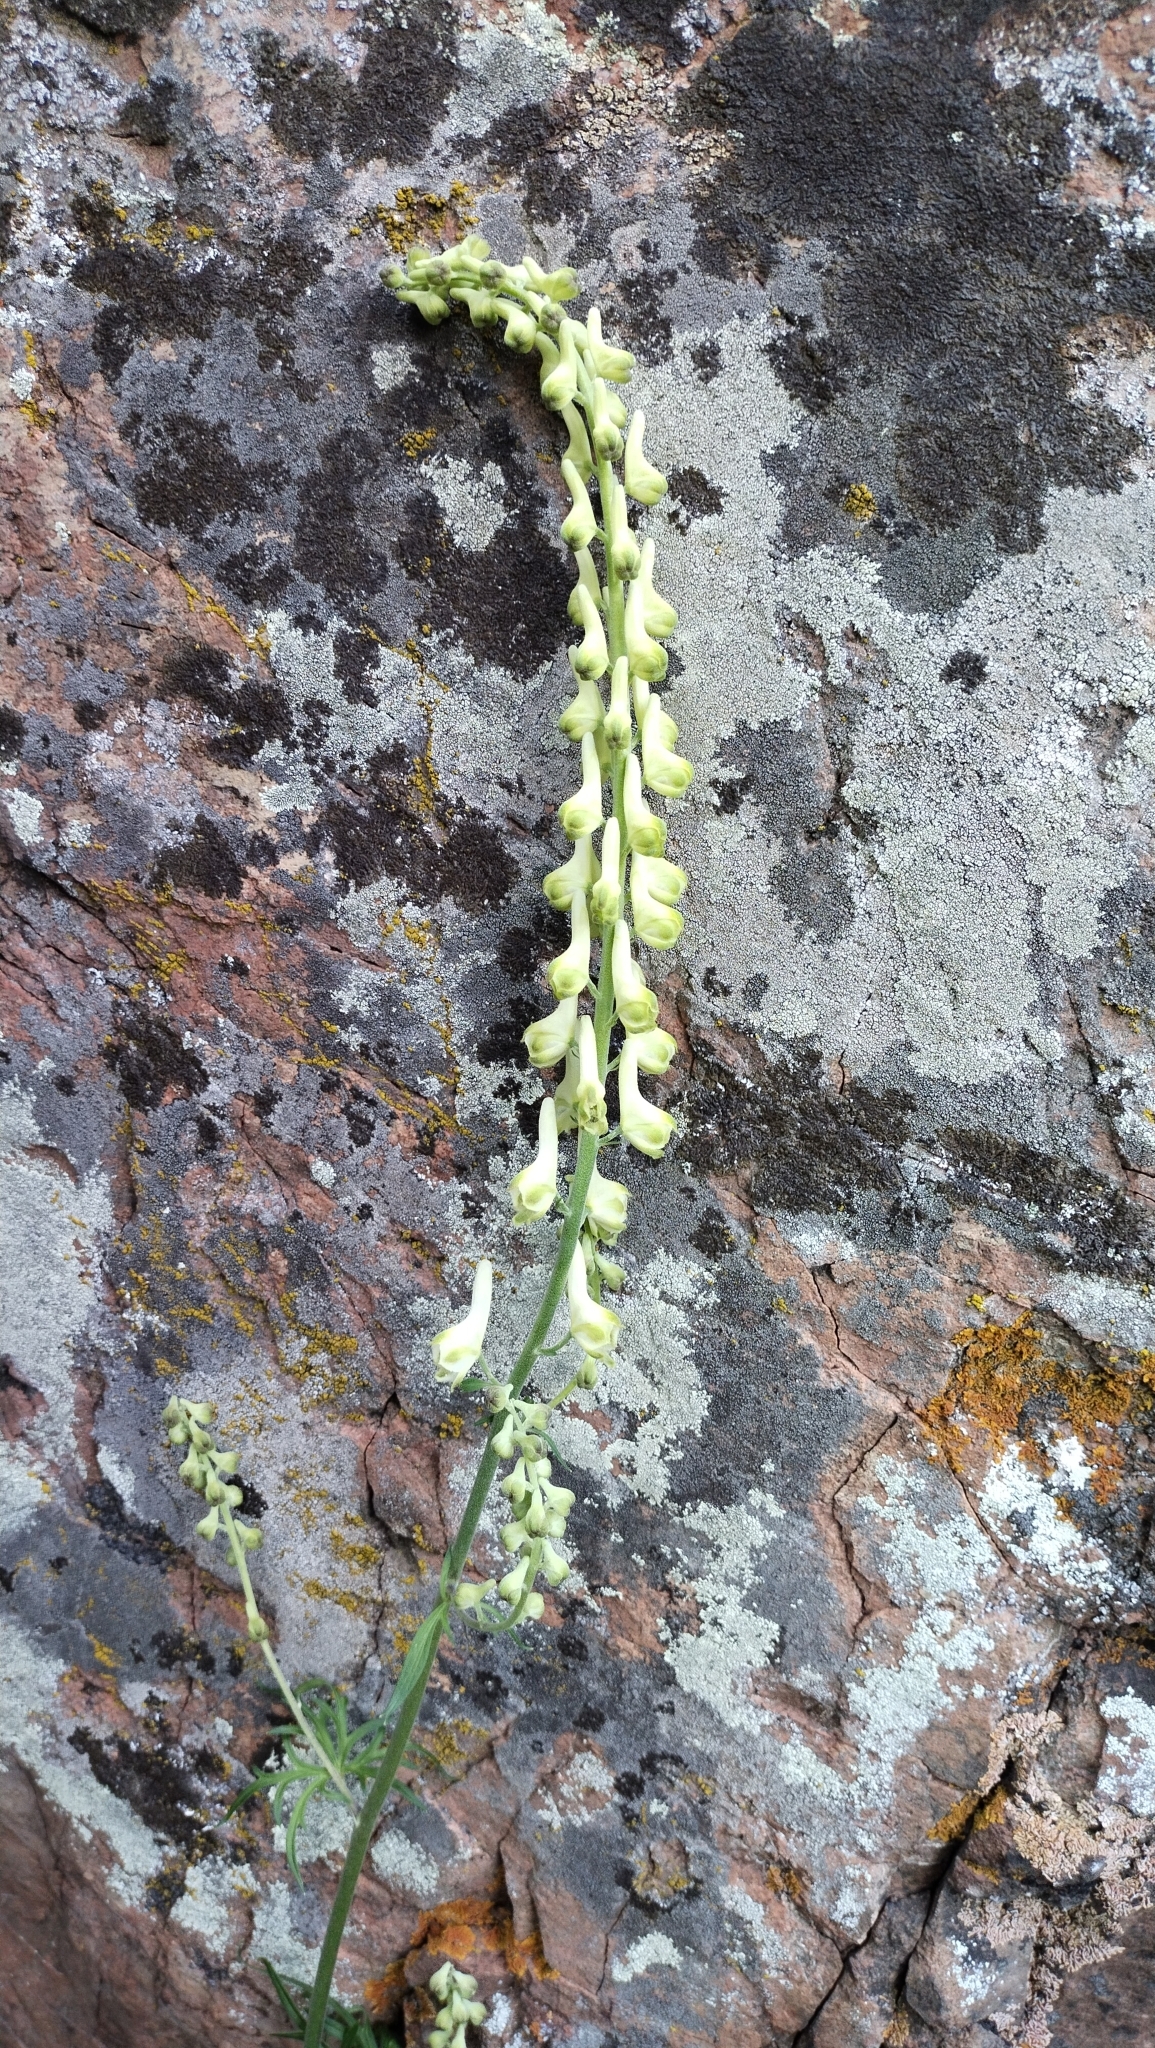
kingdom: Plantae
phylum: Tracheophyta
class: Magnoliopsida
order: Ranunculales
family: Ranunculaceae
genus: Aconitum
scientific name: Aconitum barbatum
